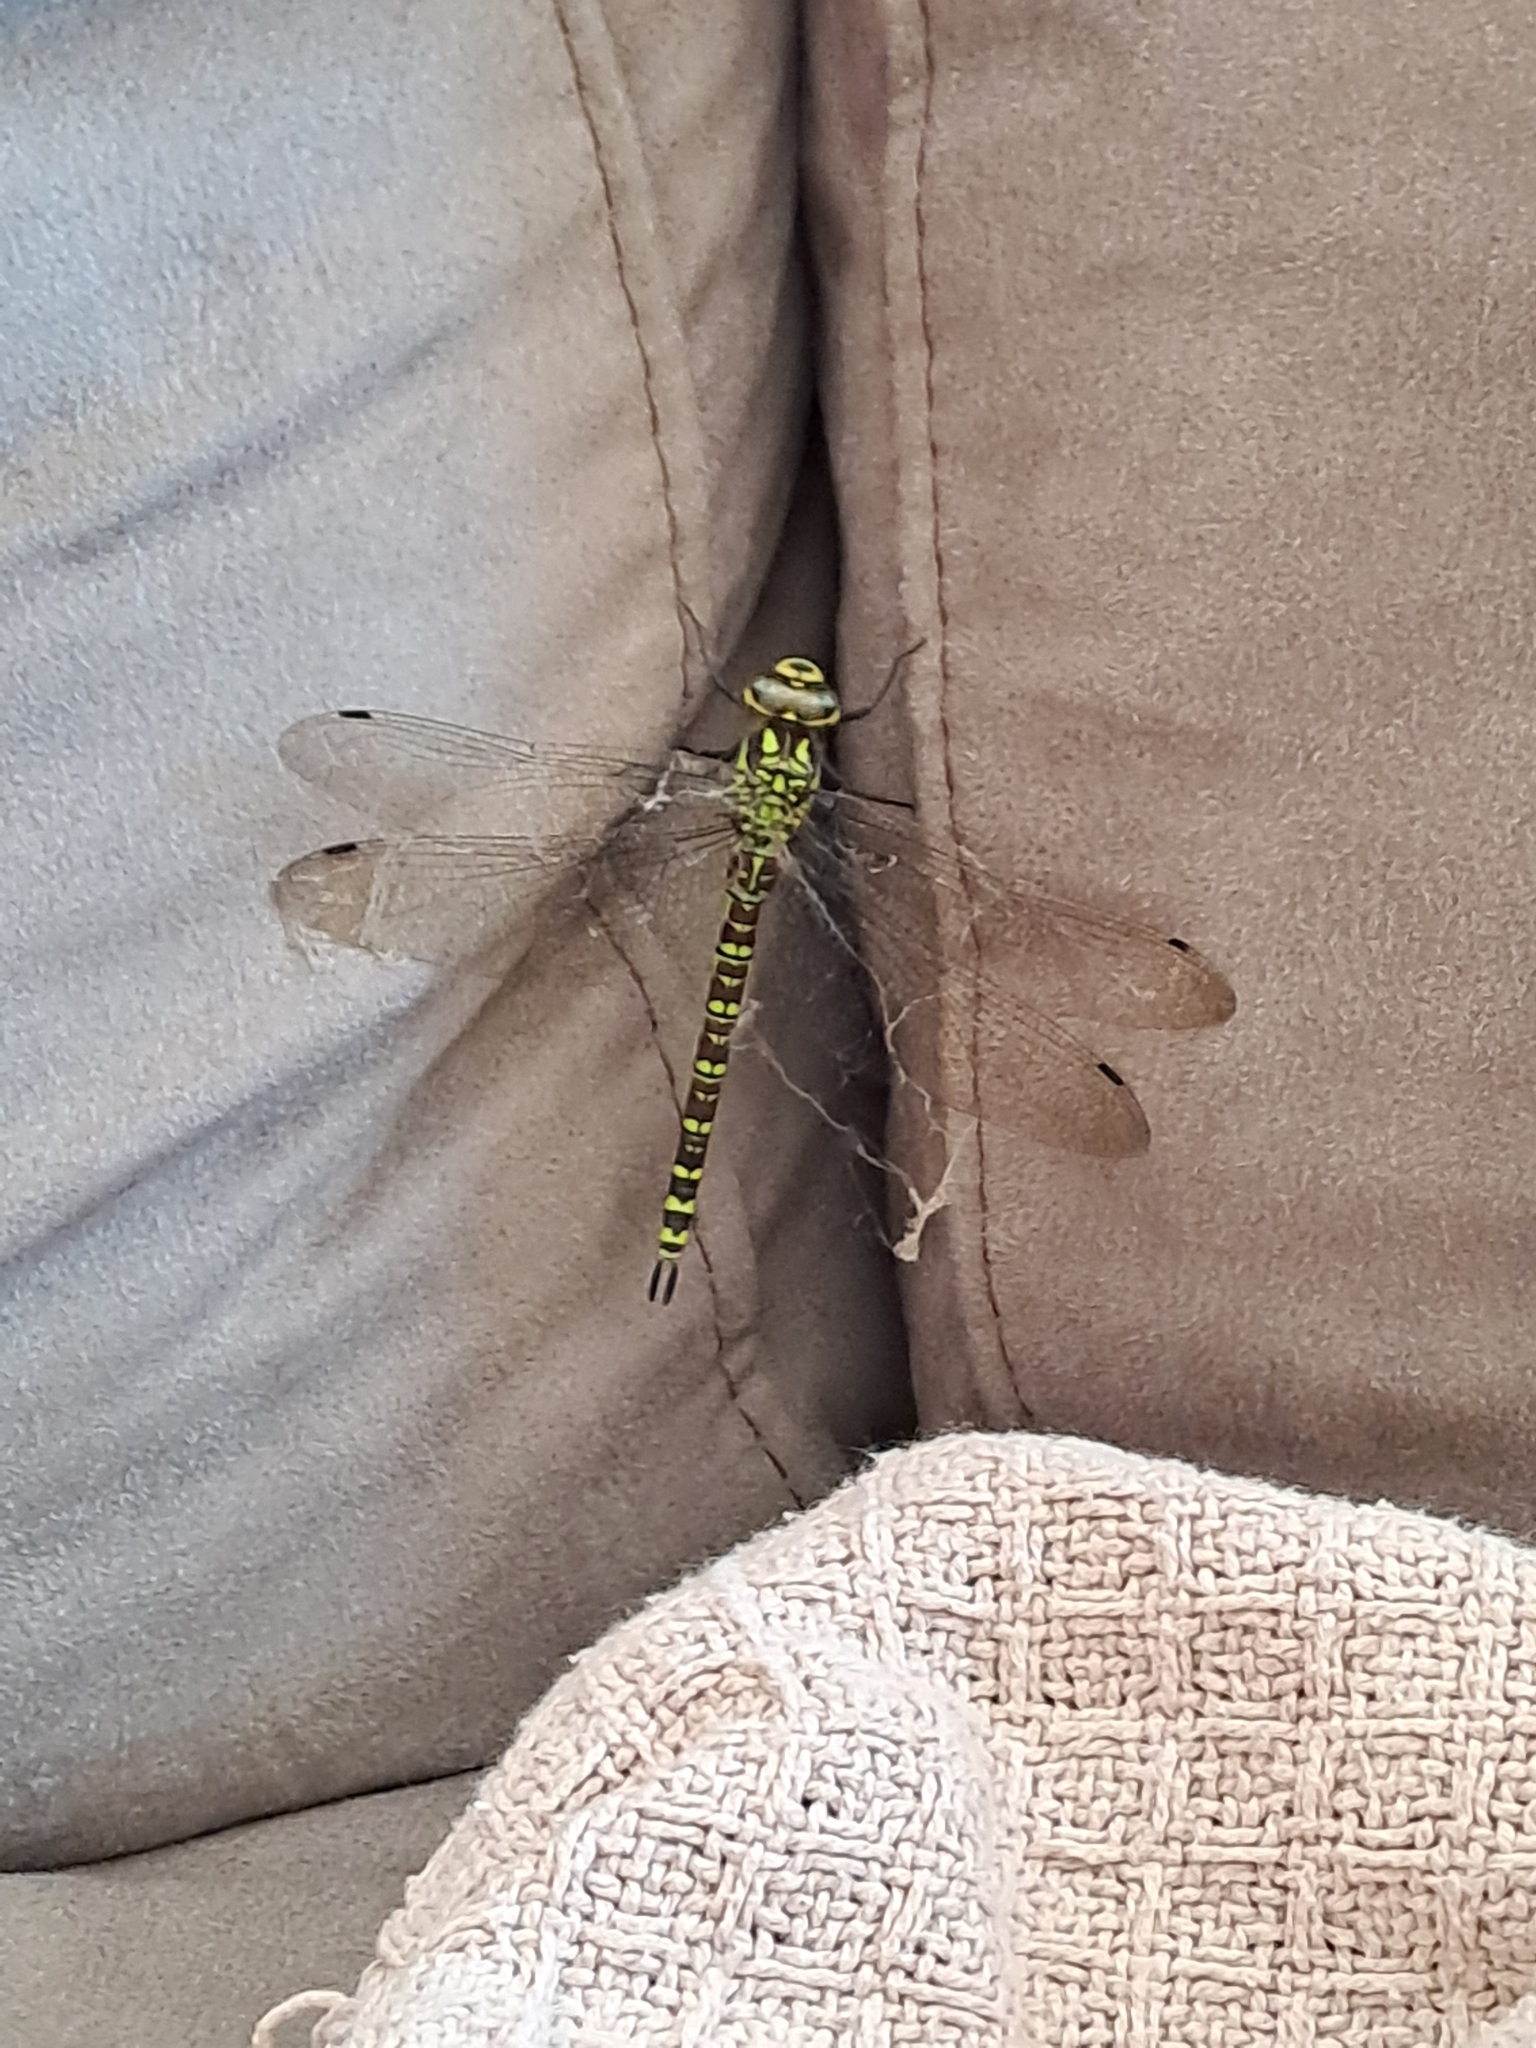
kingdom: Animalia
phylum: Arthropoda
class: Insecta
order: Odonata
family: Aeshnidae
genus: Aeshna
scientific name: Aeshna cyanea
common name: Southern hawker
